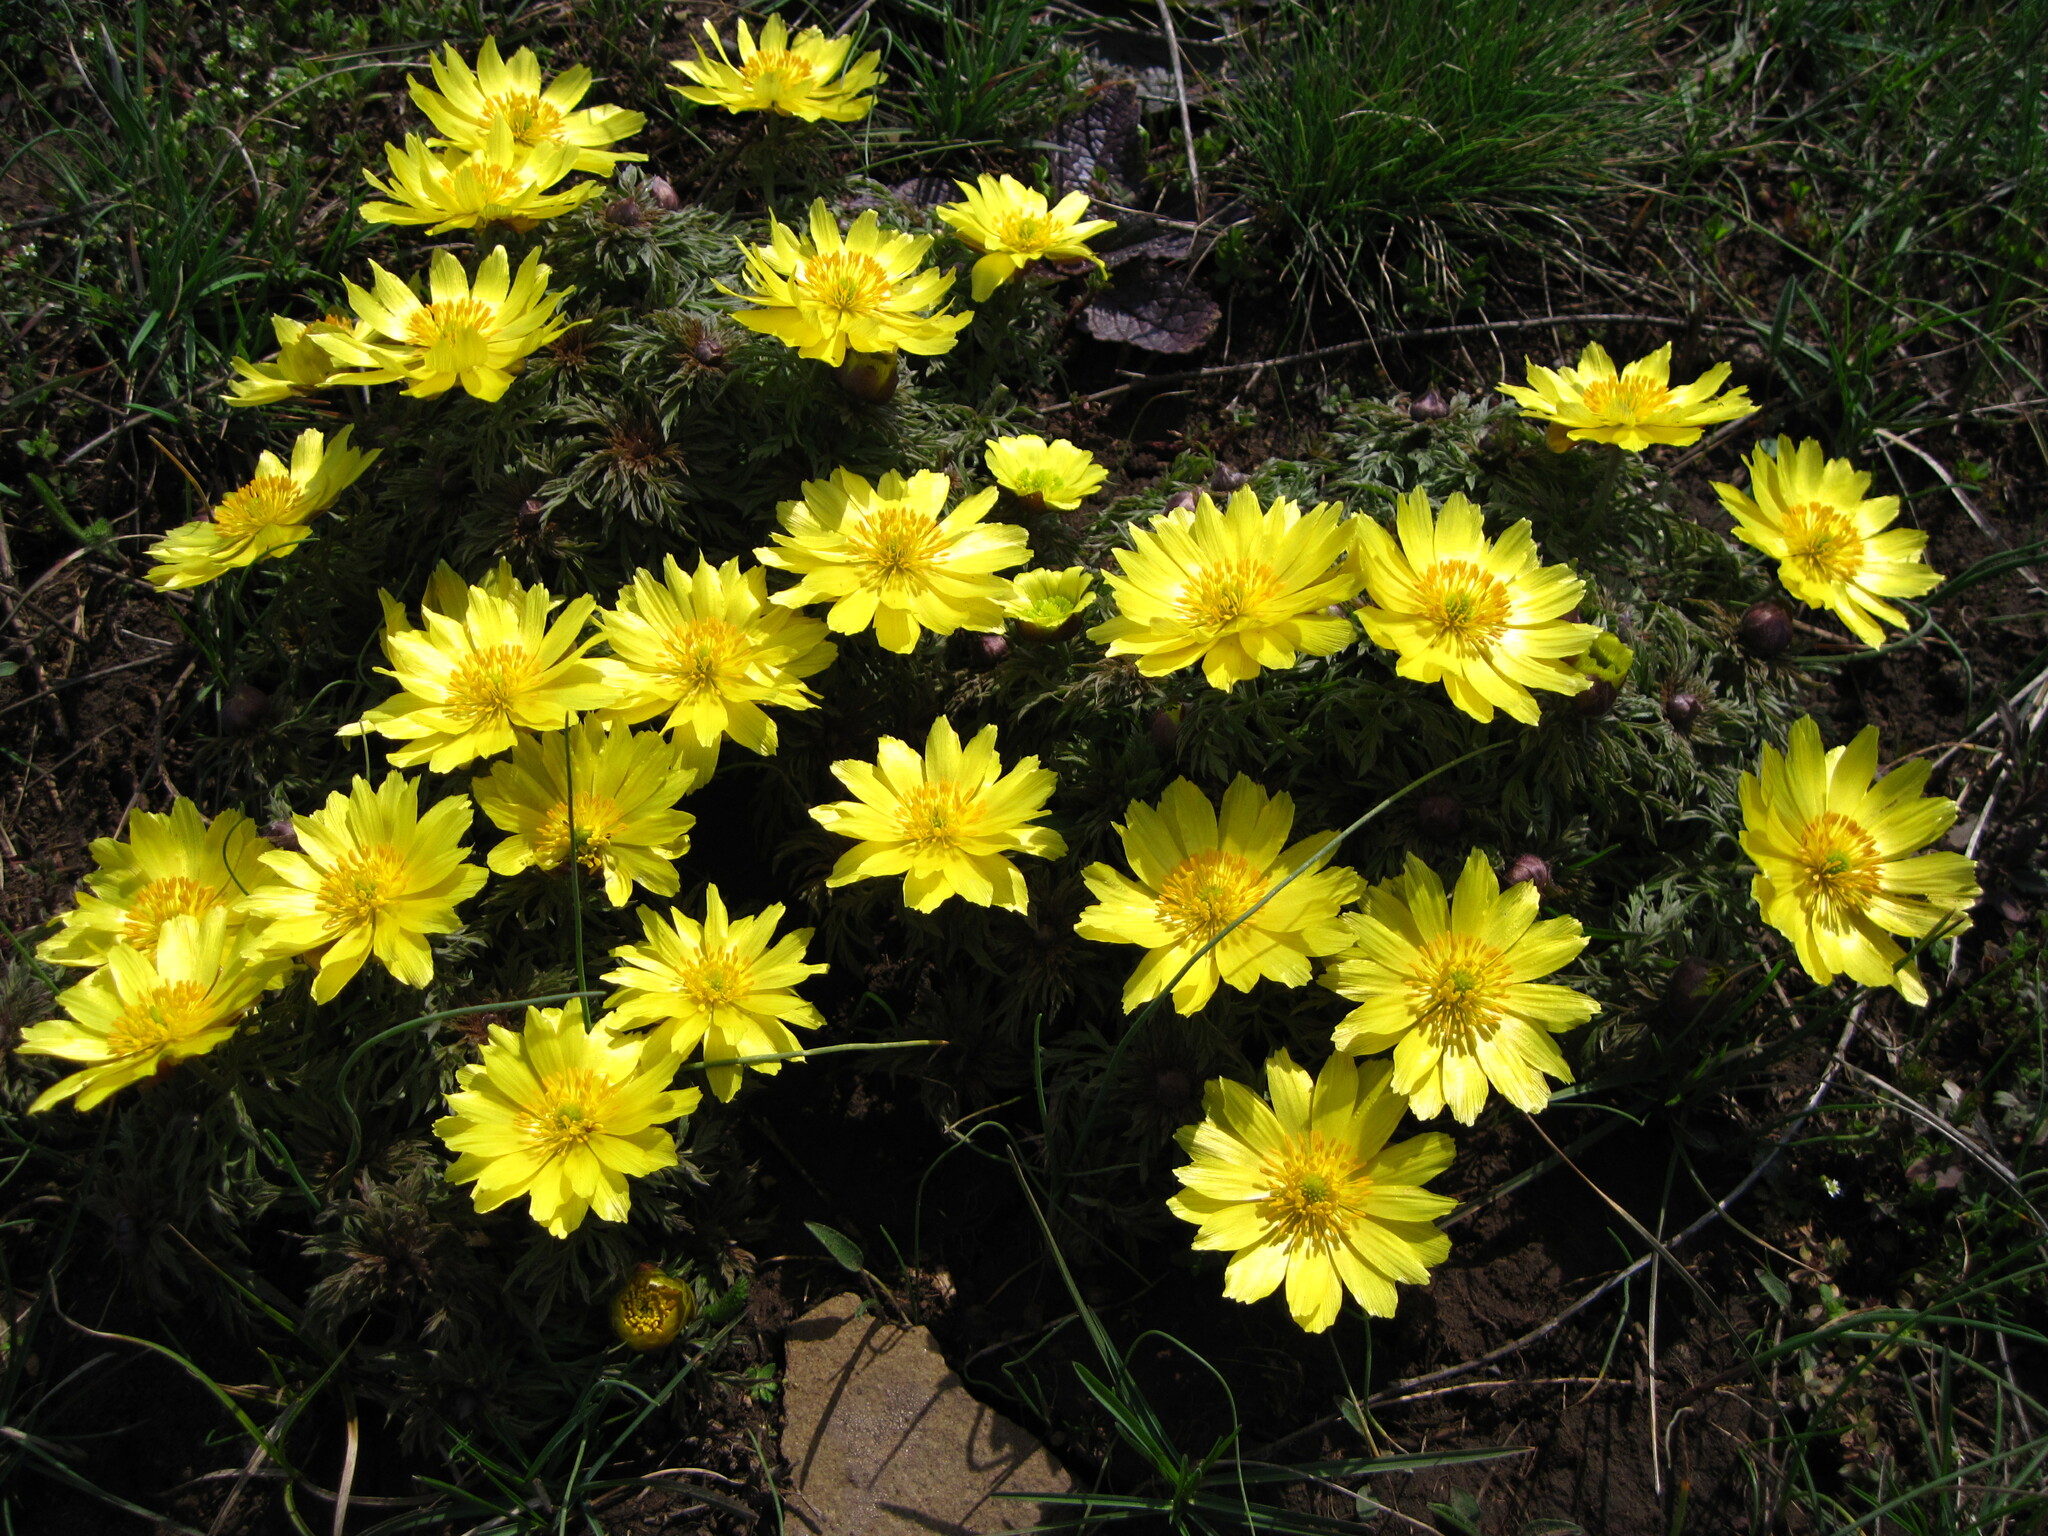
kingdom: Plantae
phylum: Tracheophyta
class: Magnoliopsida
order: Ranunculales
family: Ranunculaceae
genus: Adonis
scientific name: Adonis volgensis
